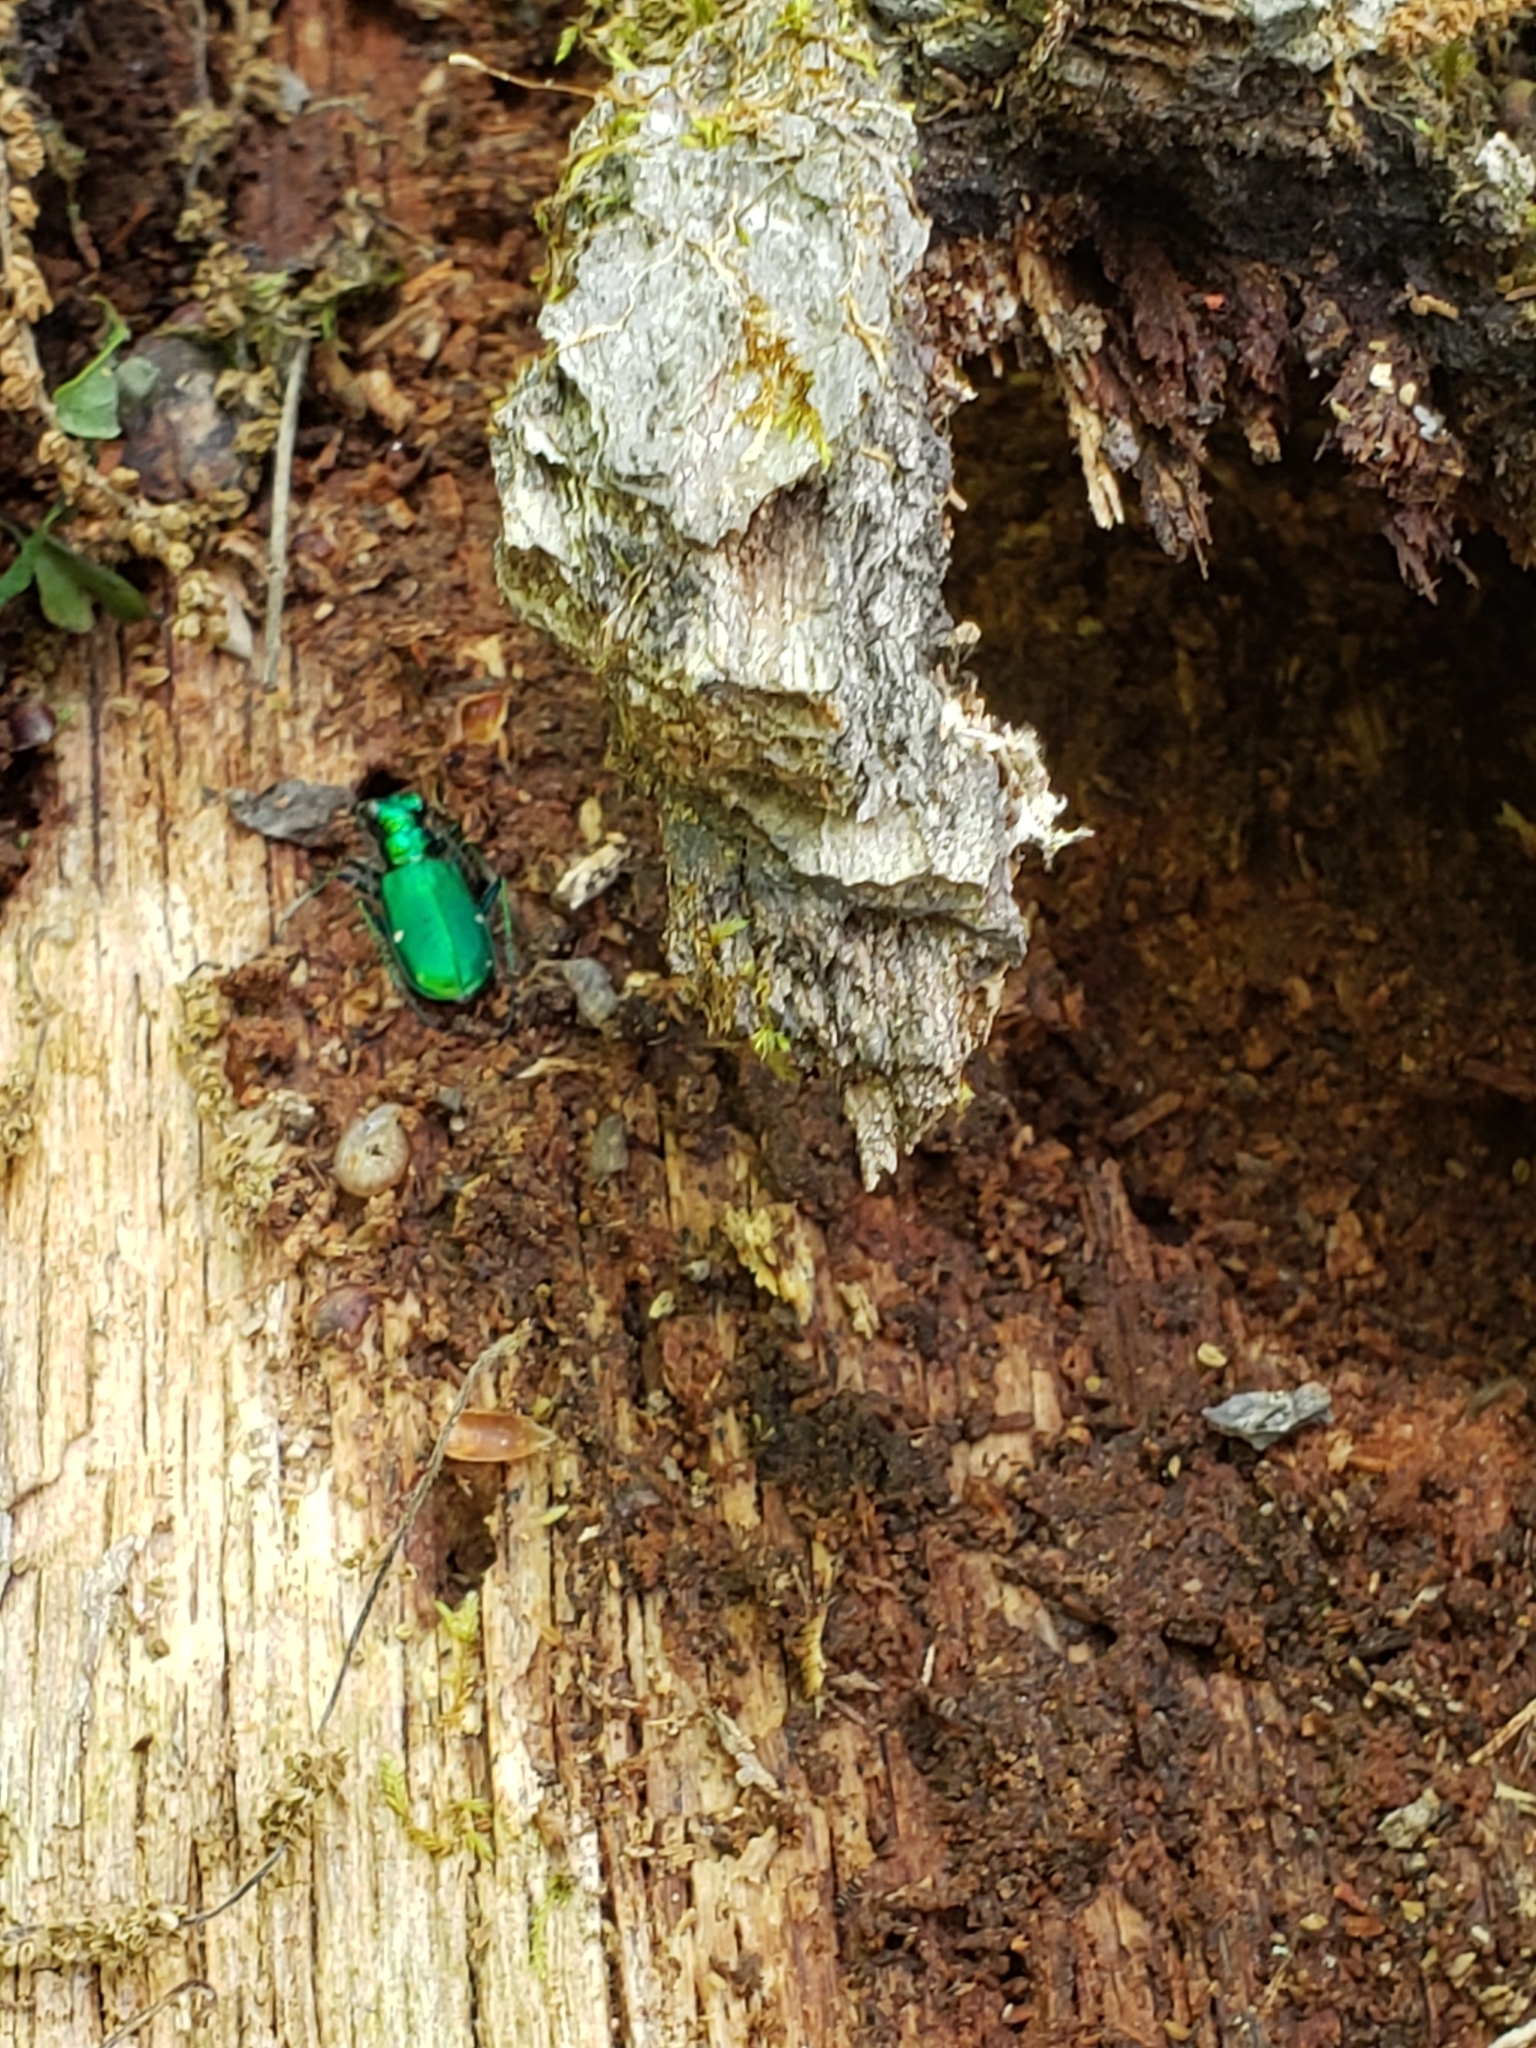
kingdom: Animalia
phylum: Arthropoda
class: Insecta
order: Coleoptera
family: Carabidae
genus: Cicindela
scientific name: Cicindela sexguttata
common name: Six-spotted tiger beetle
